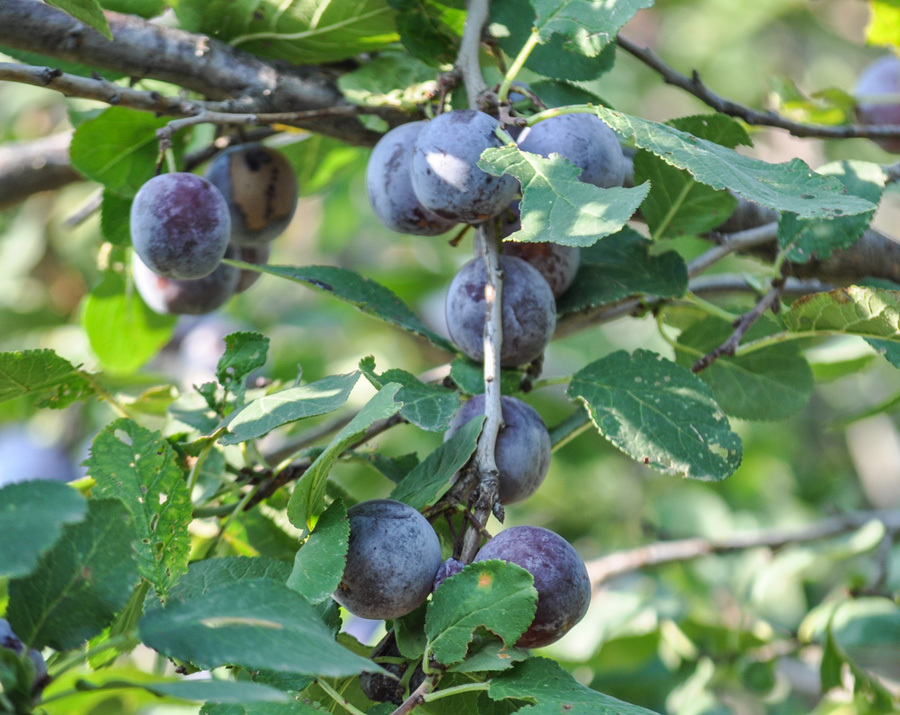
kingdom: Plantae
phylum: Tracheophyta
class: Magnoliopsida
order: Rosales
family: Rosaceae
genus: Prunus
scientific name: Prunus spinosa
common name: Blackthorn
